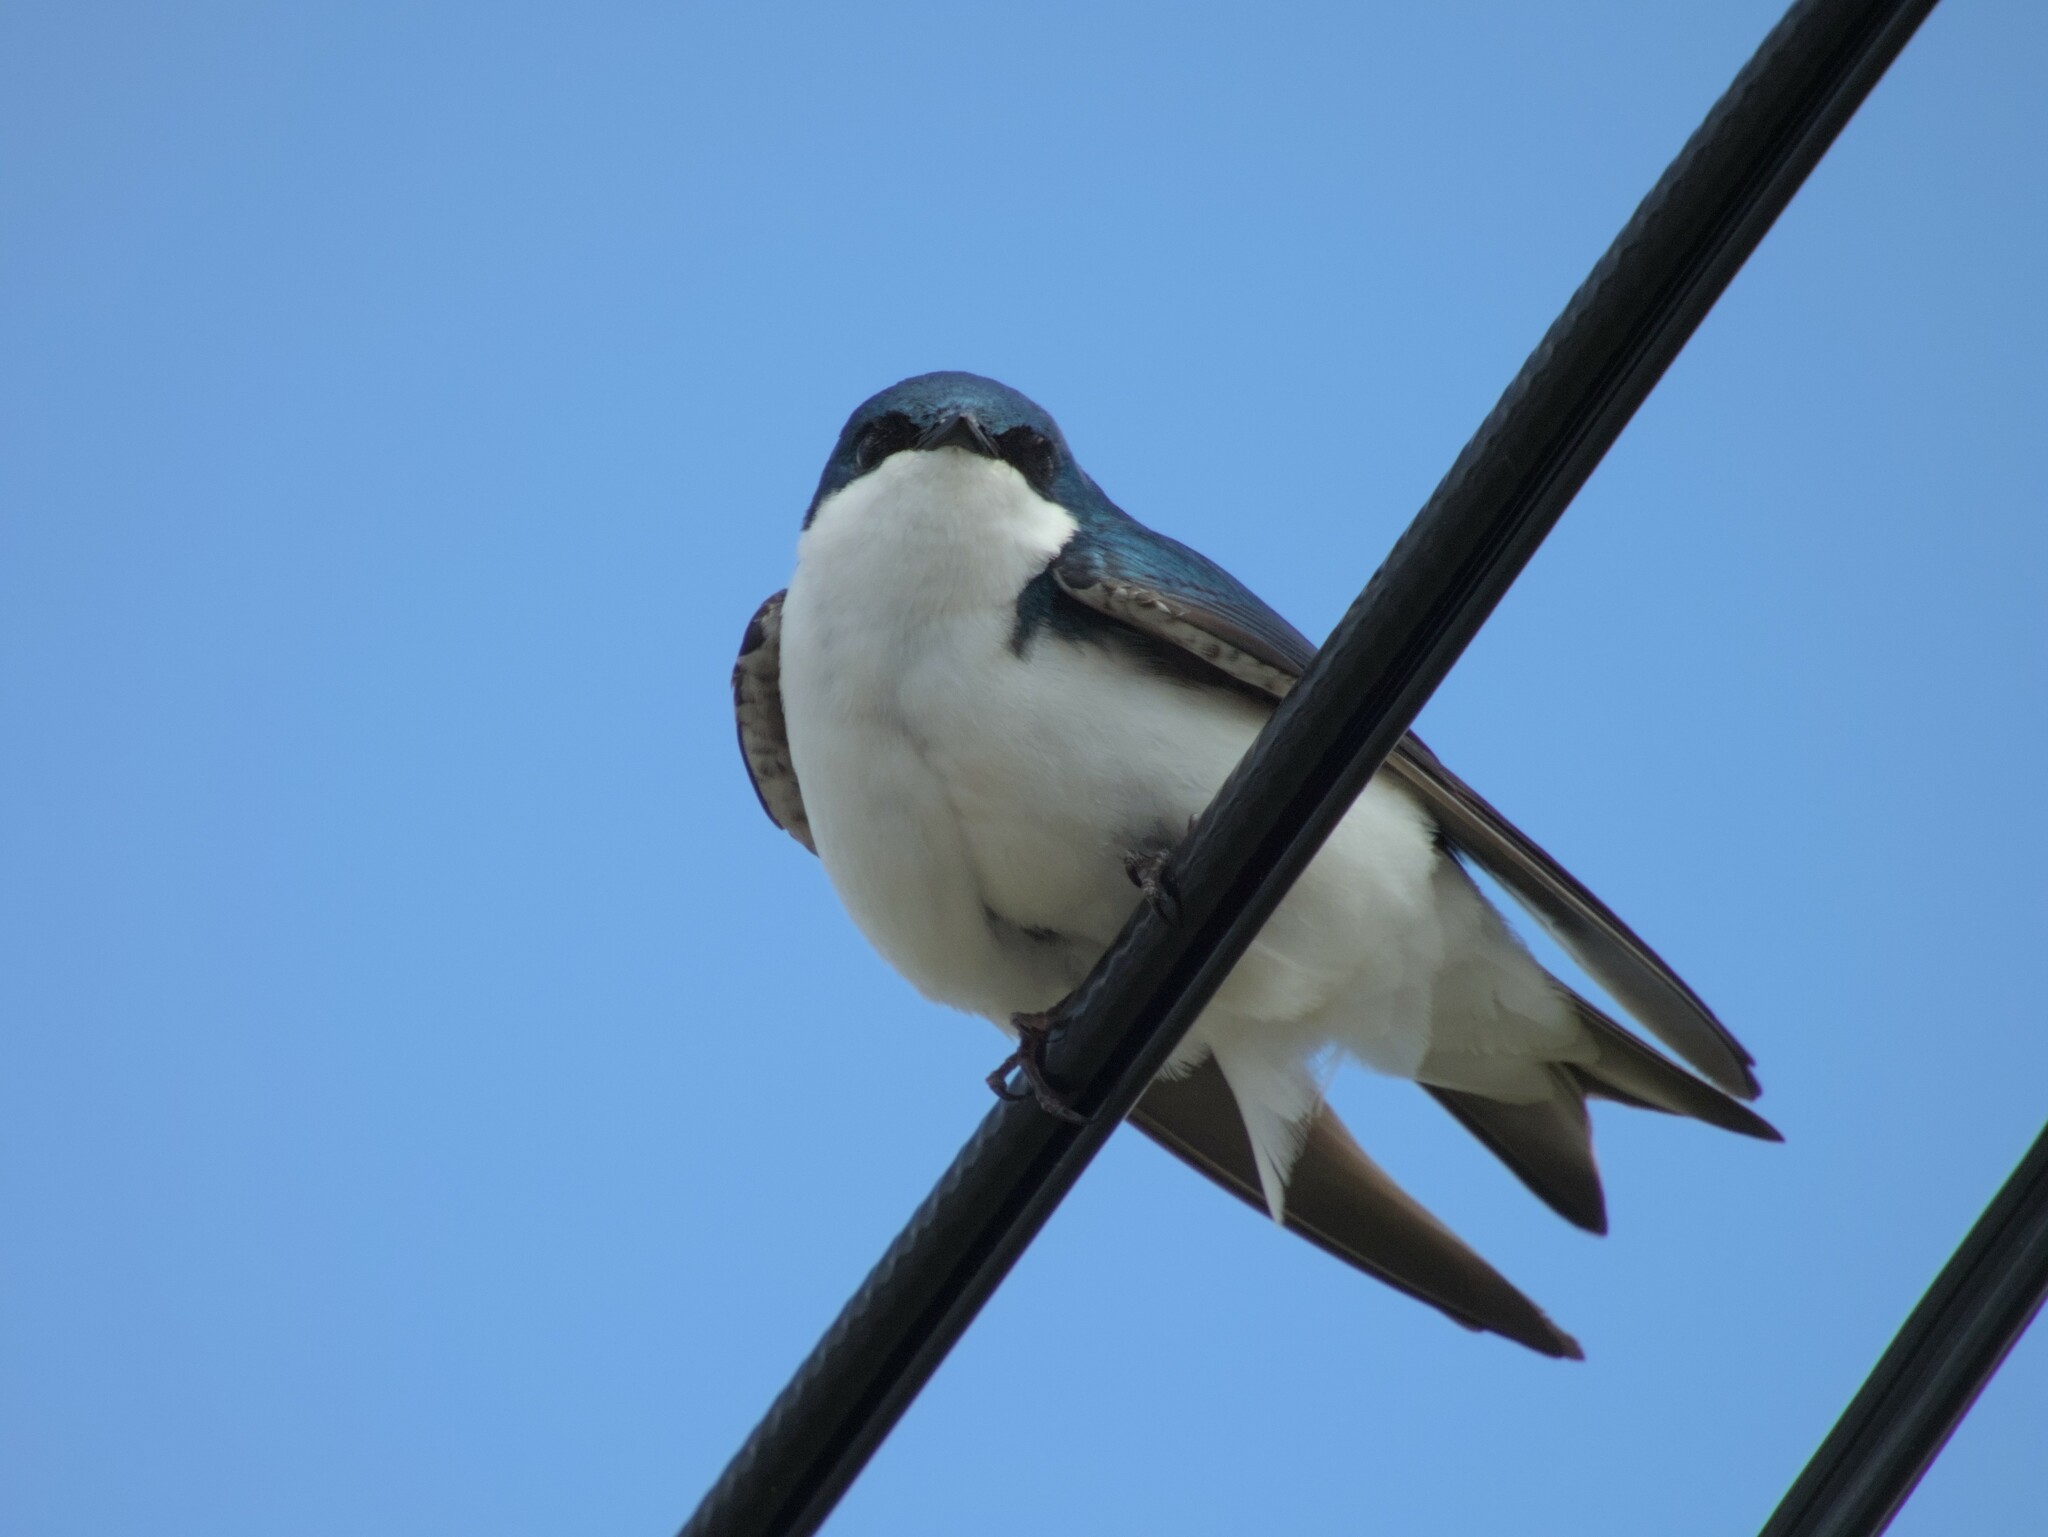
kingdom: Animalia
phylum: Chordata
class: Aves
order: Passeriformes
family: Hirundinidae
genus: Tachycineta
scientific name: Tachycineta bicolor
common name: Tree swallow
